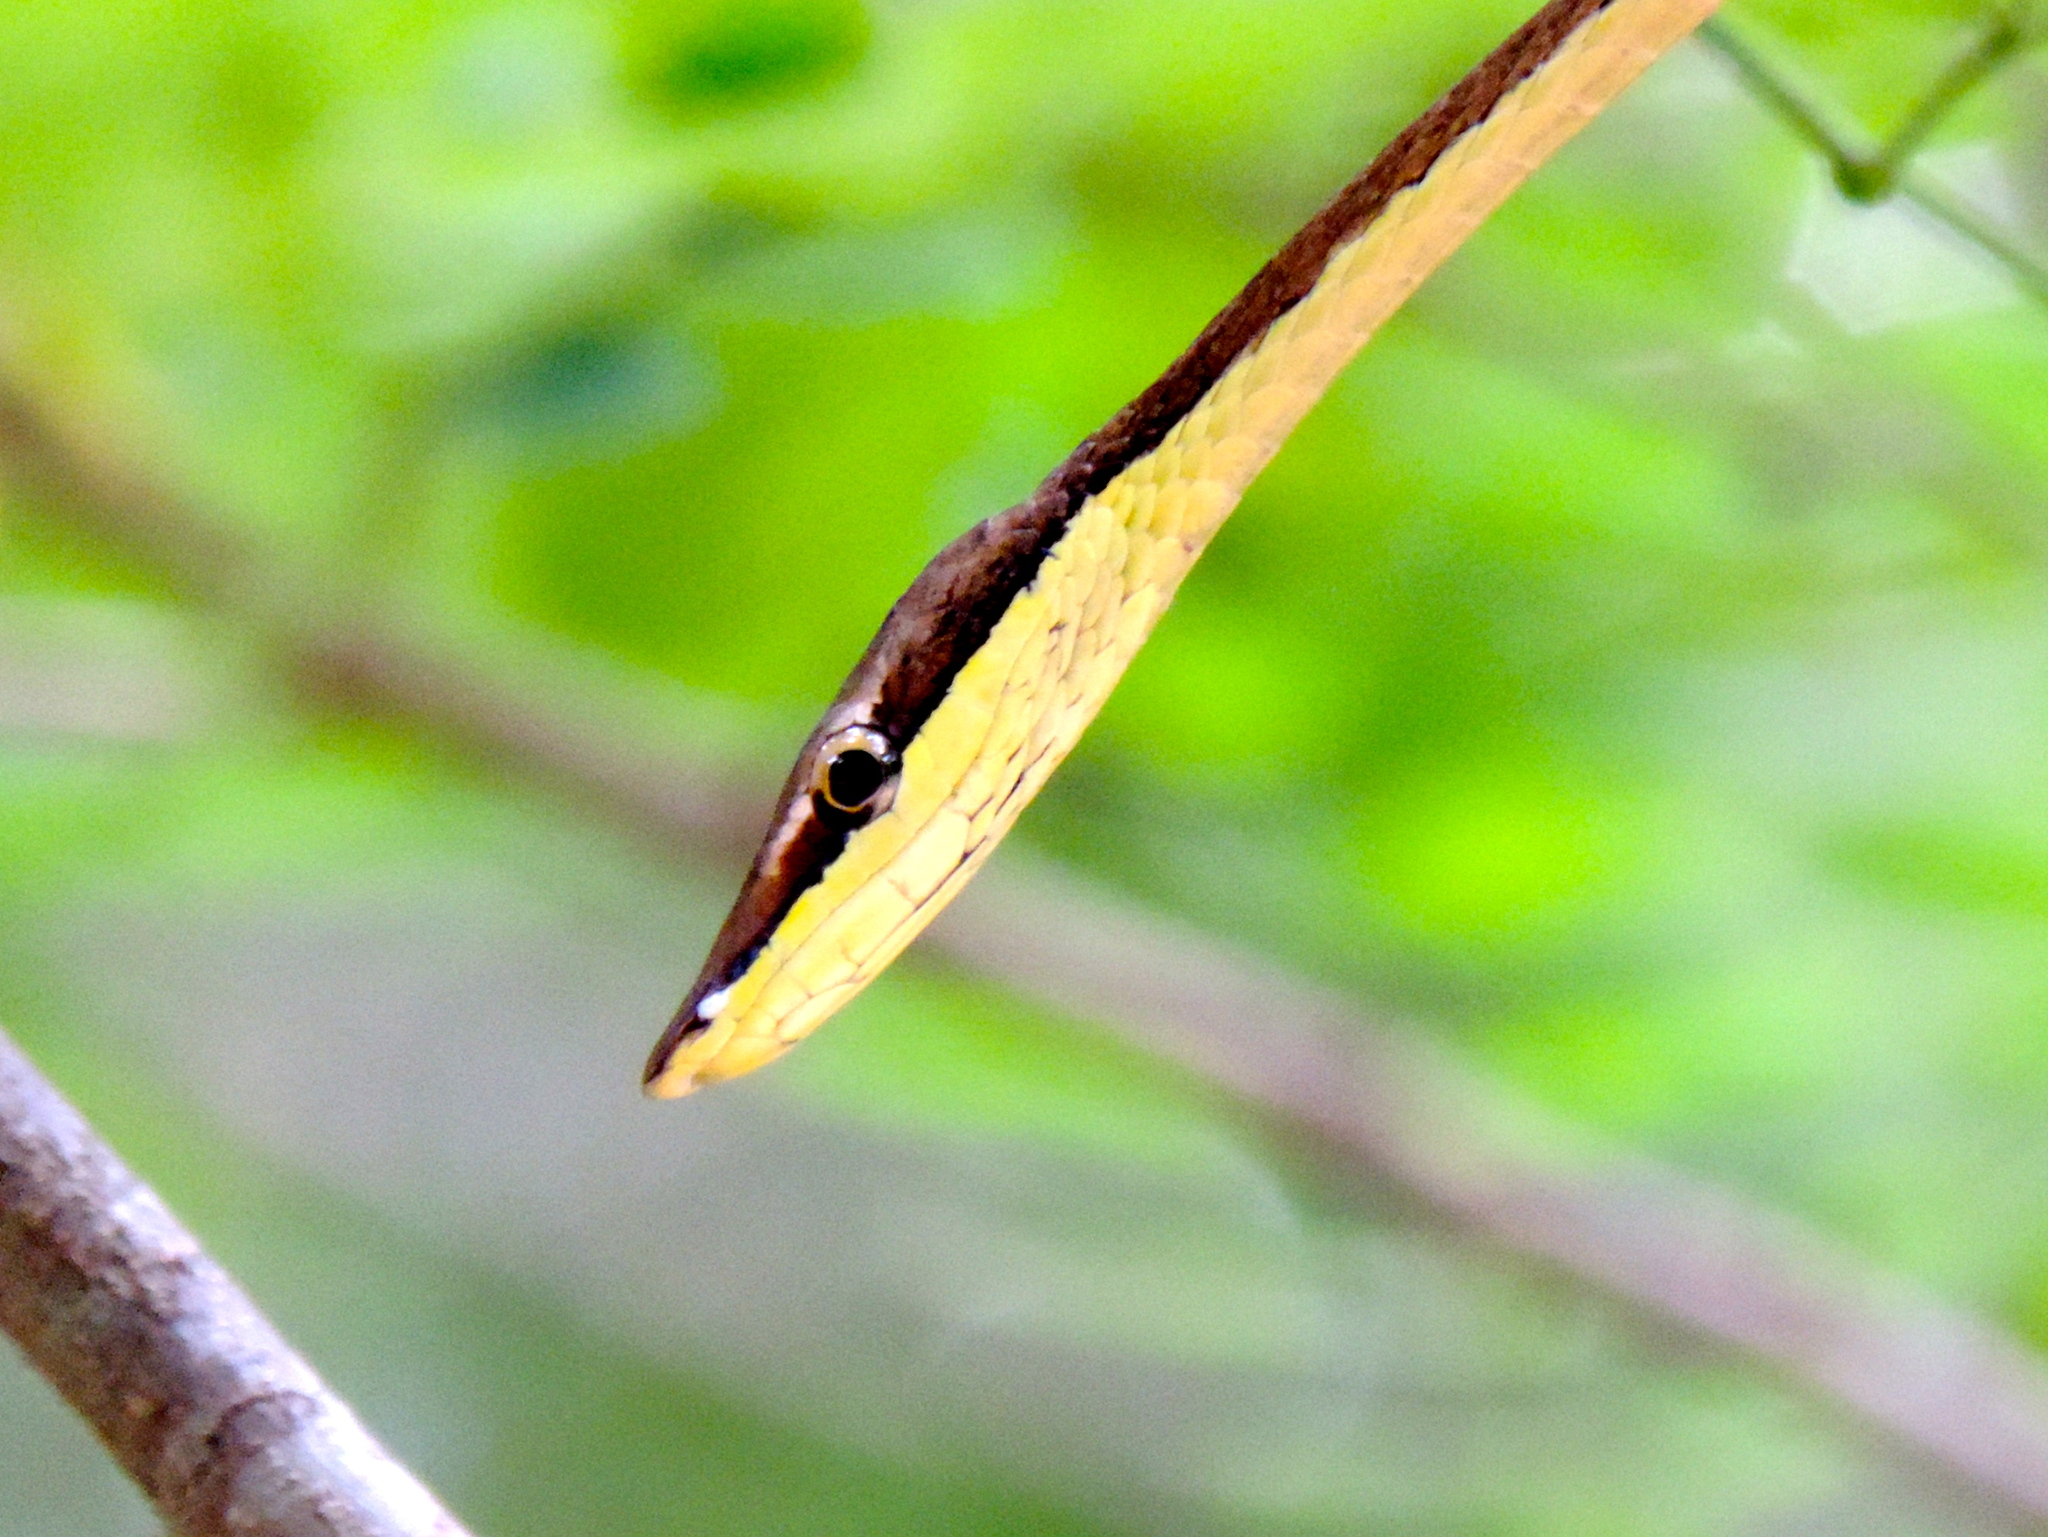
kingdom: Animalia
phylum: Chordata
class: Squamata
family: Colubridae
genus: Oxybelis
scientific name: Oxybelis microphthalmus
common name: Thrornscrub vine snake
